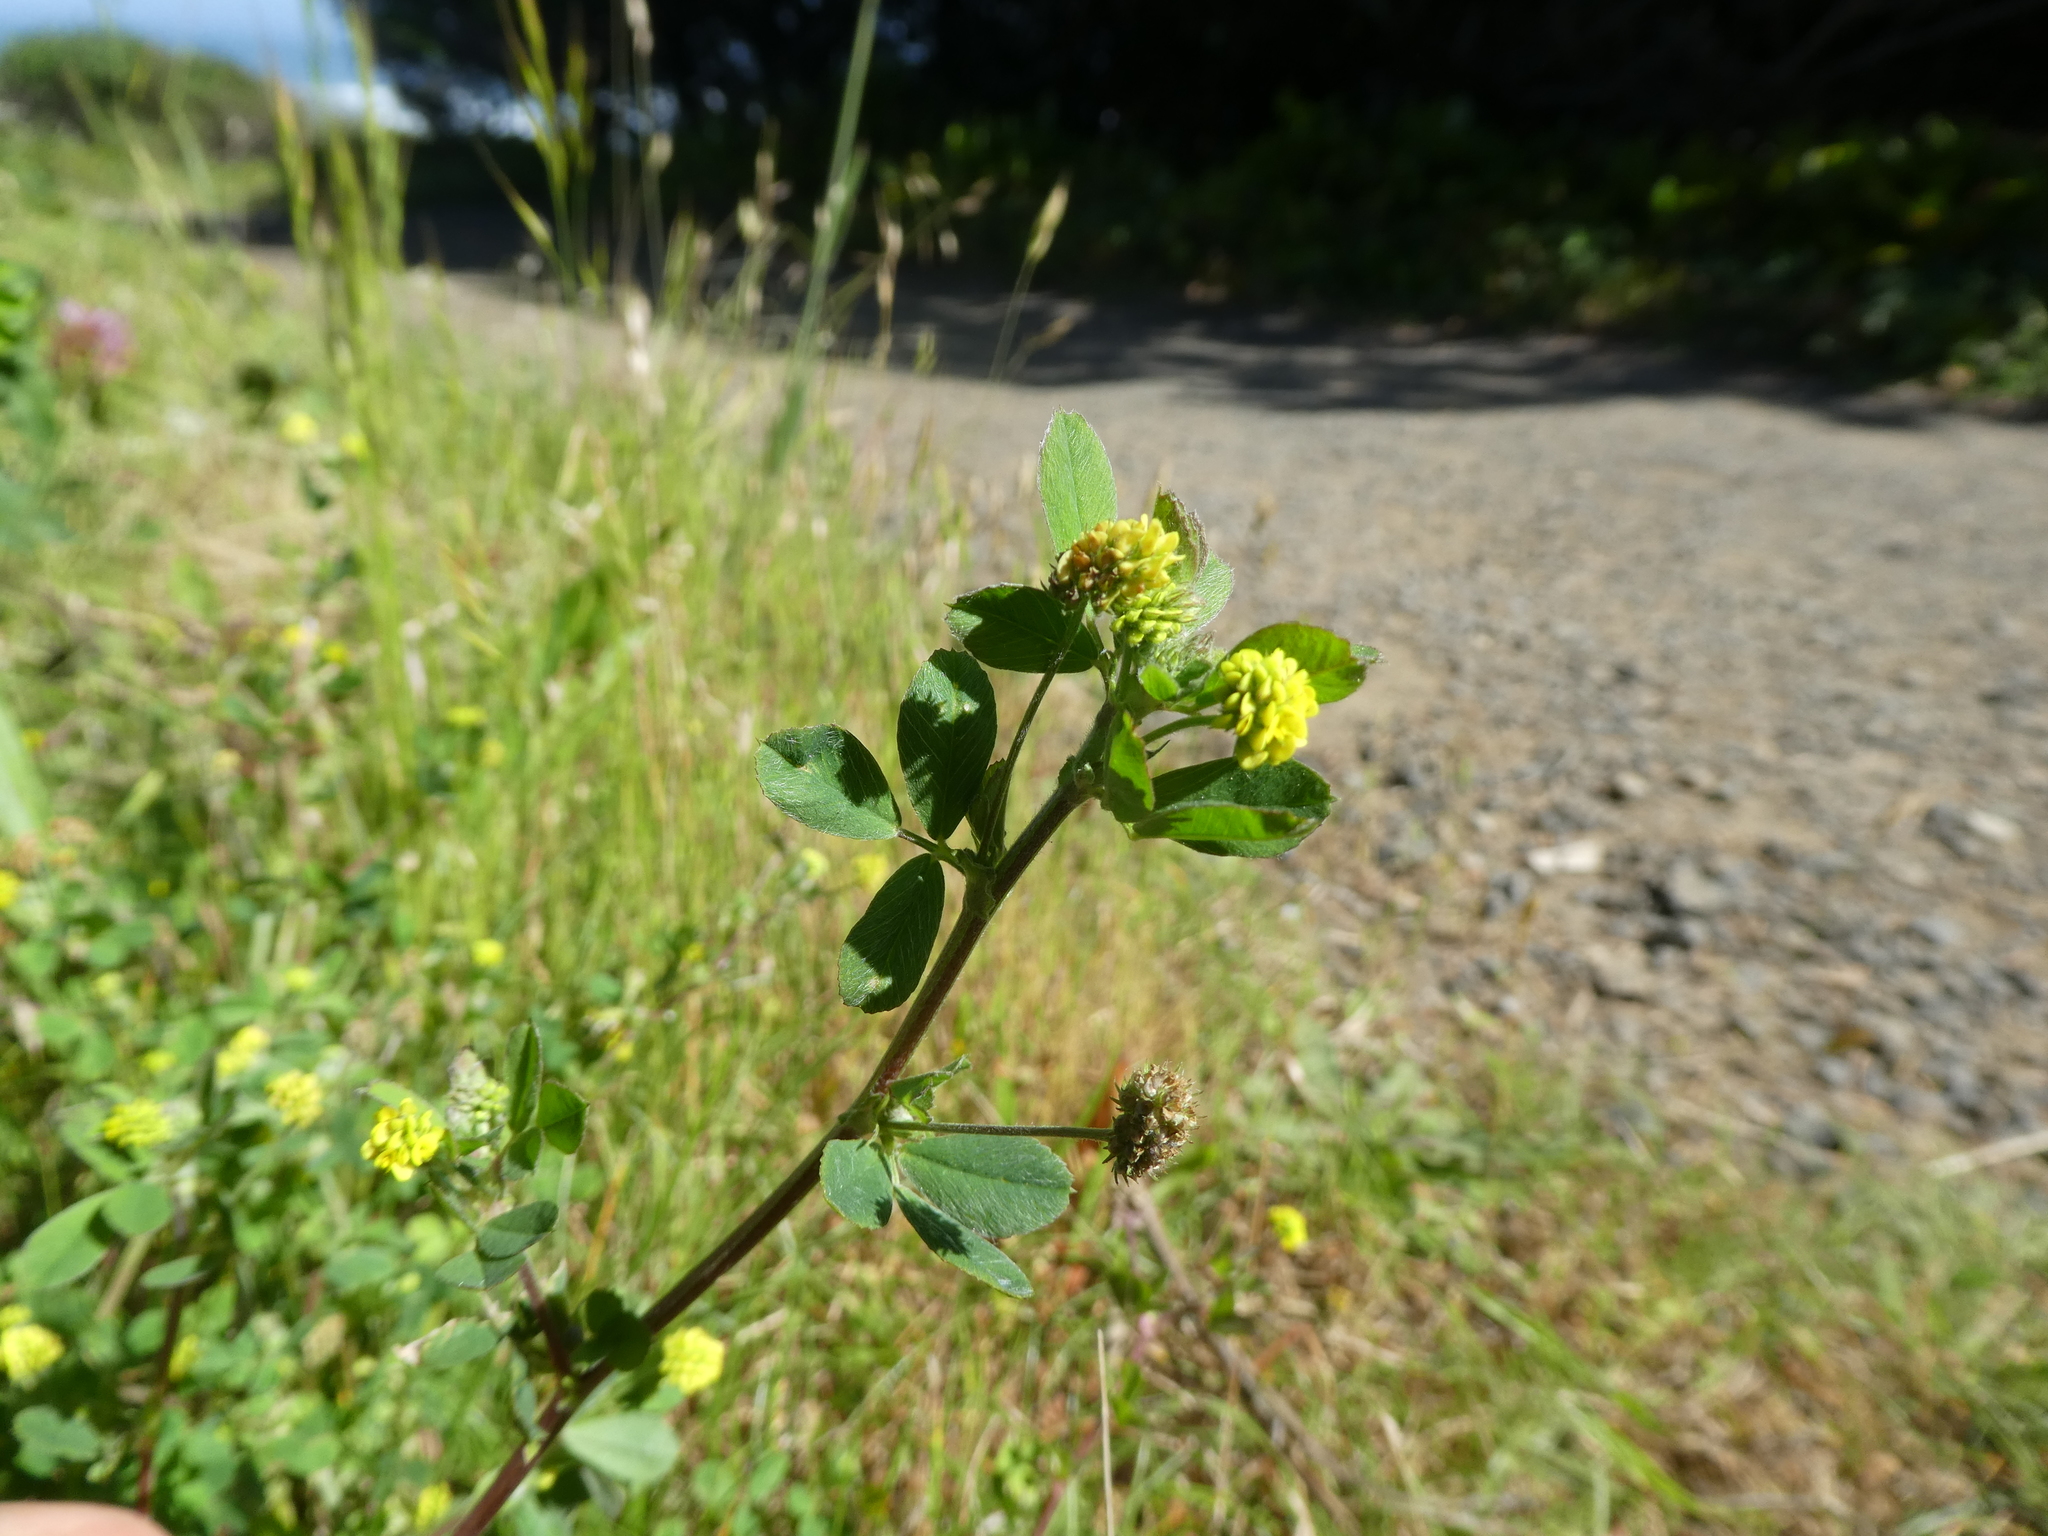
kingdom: Plantae
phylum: Tracheophyta
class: Magnoliopsida
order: Fabales
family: Fabaceae
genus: Medicago
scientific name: Medicago lupulina
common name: Black medick
